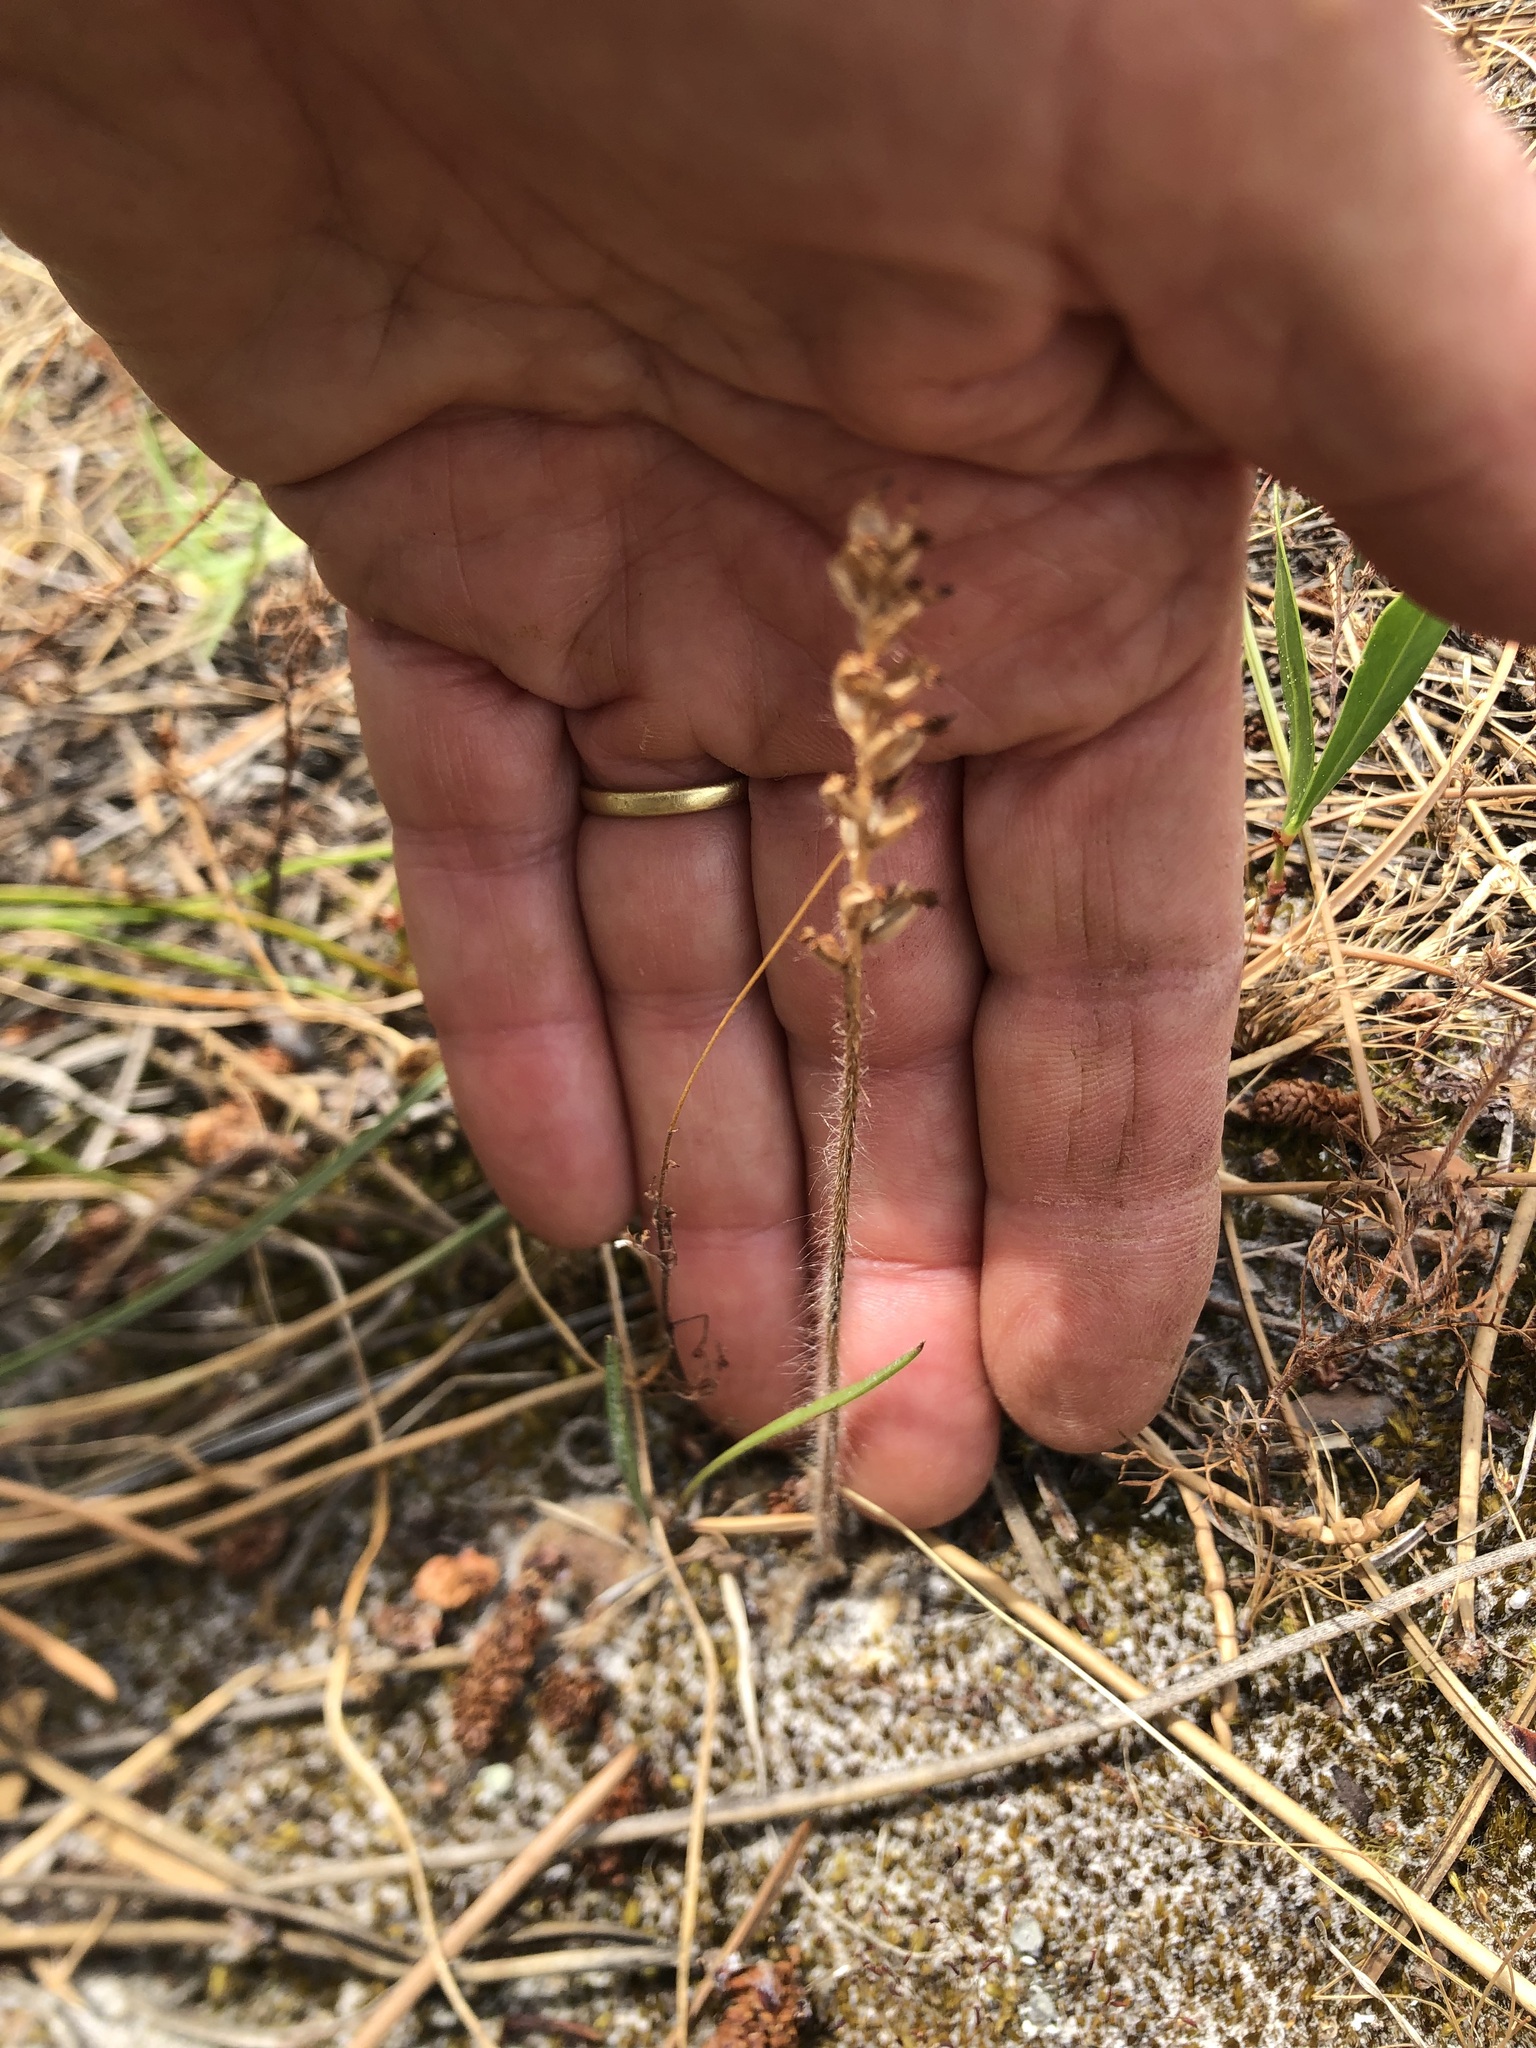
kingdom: Plantae
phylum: Tracheophyta
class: Liliopsida
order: Asparagales
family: Orchidaceae
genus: Holothrix
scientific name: Holothrix villosa
